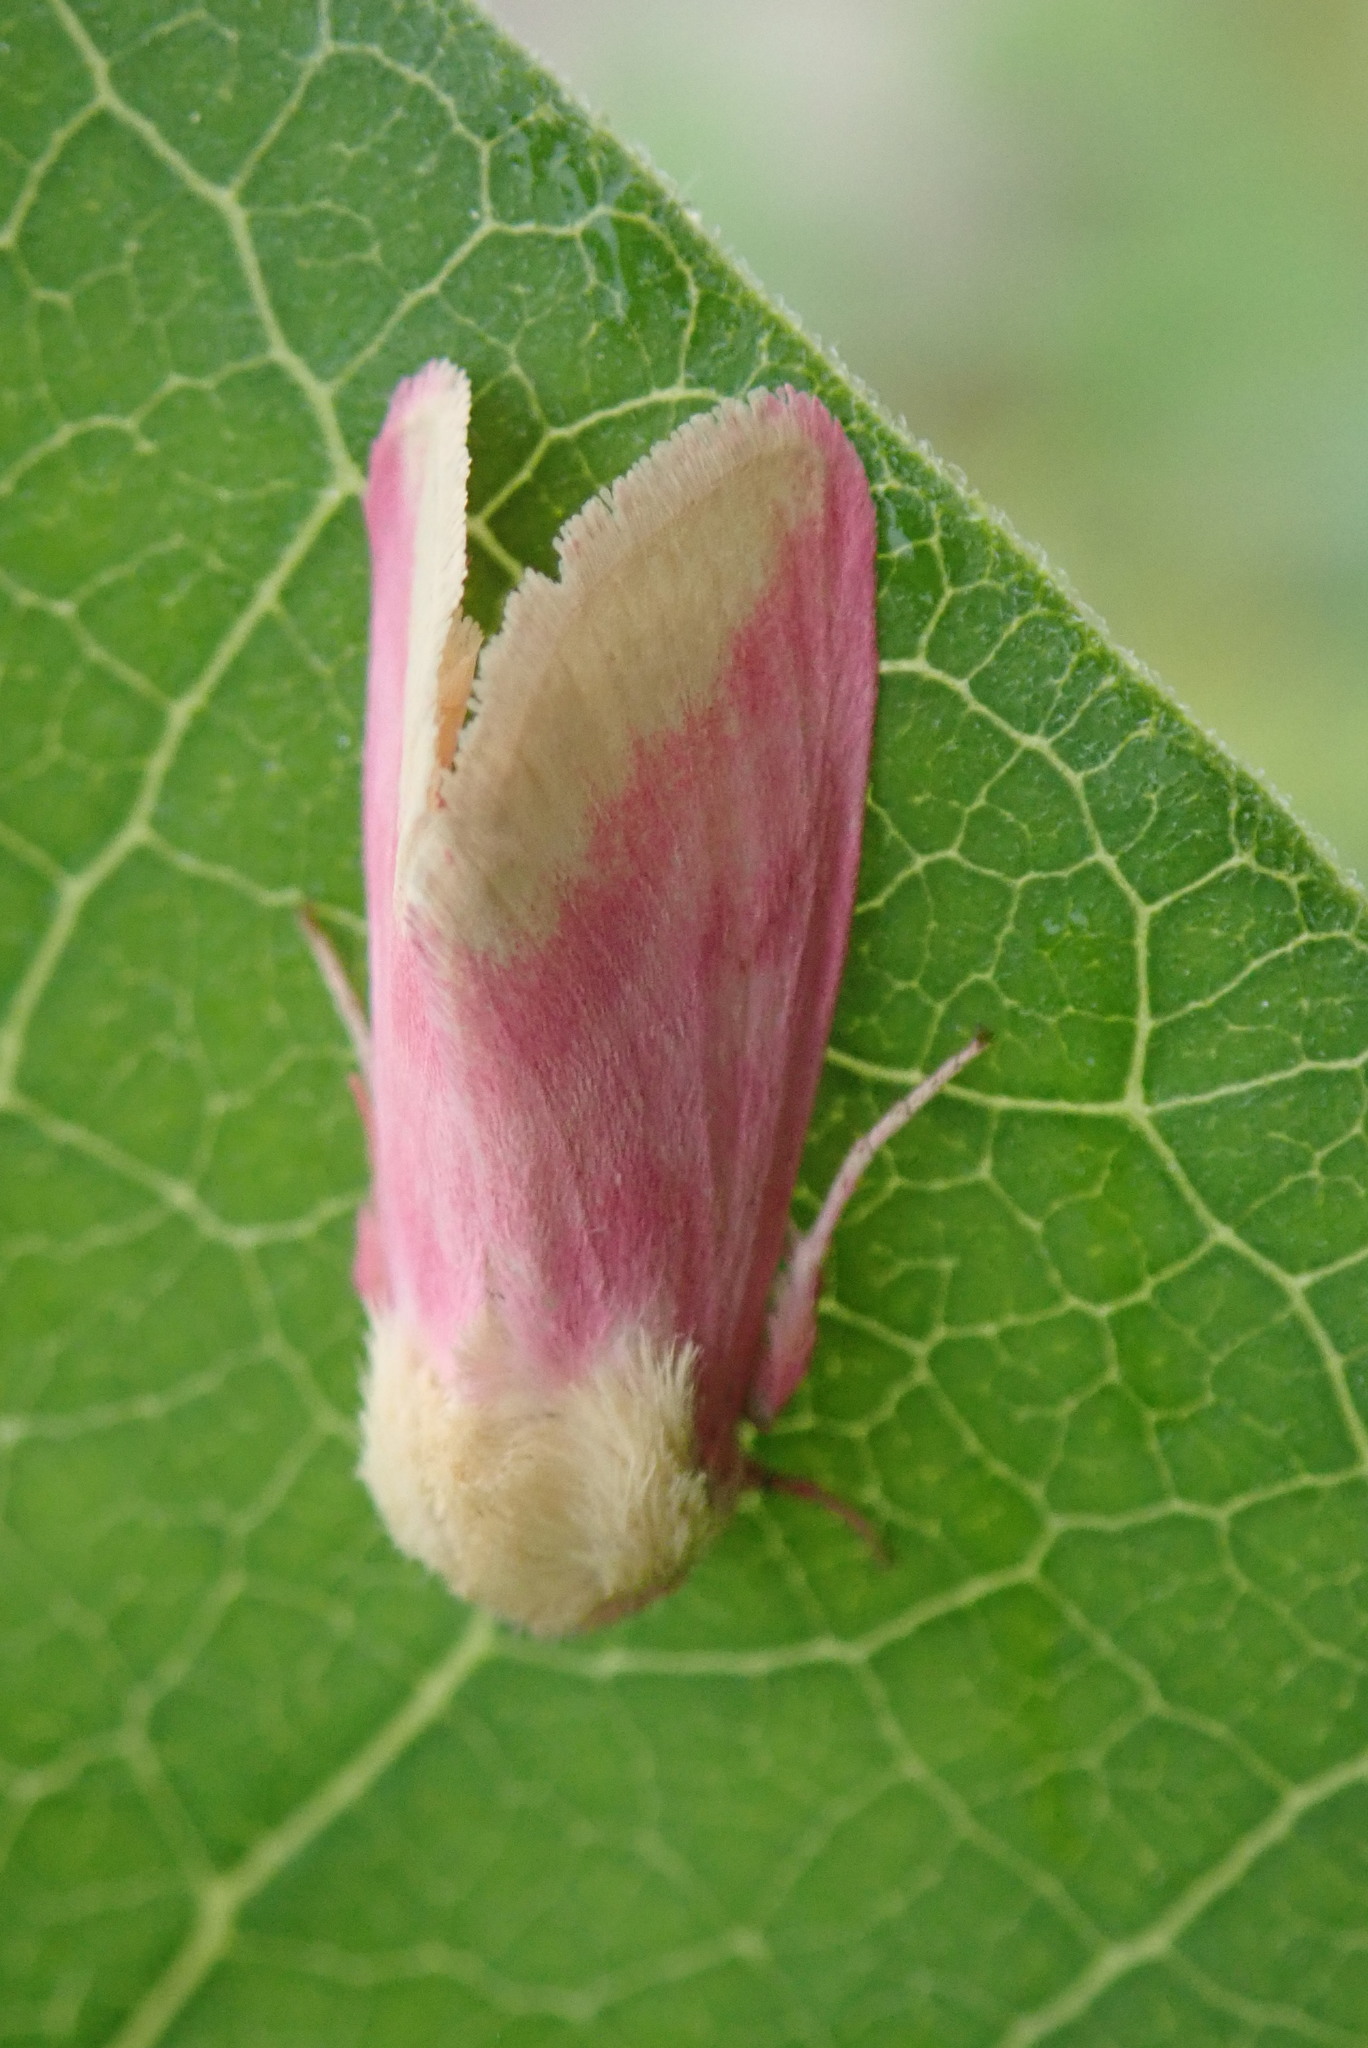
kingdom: Animalia
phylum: Arthropoda
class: Insecta
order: Lepidoptera
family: Noctuidae
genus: Schinia
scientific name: Schinia florida
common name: Primrose moth
